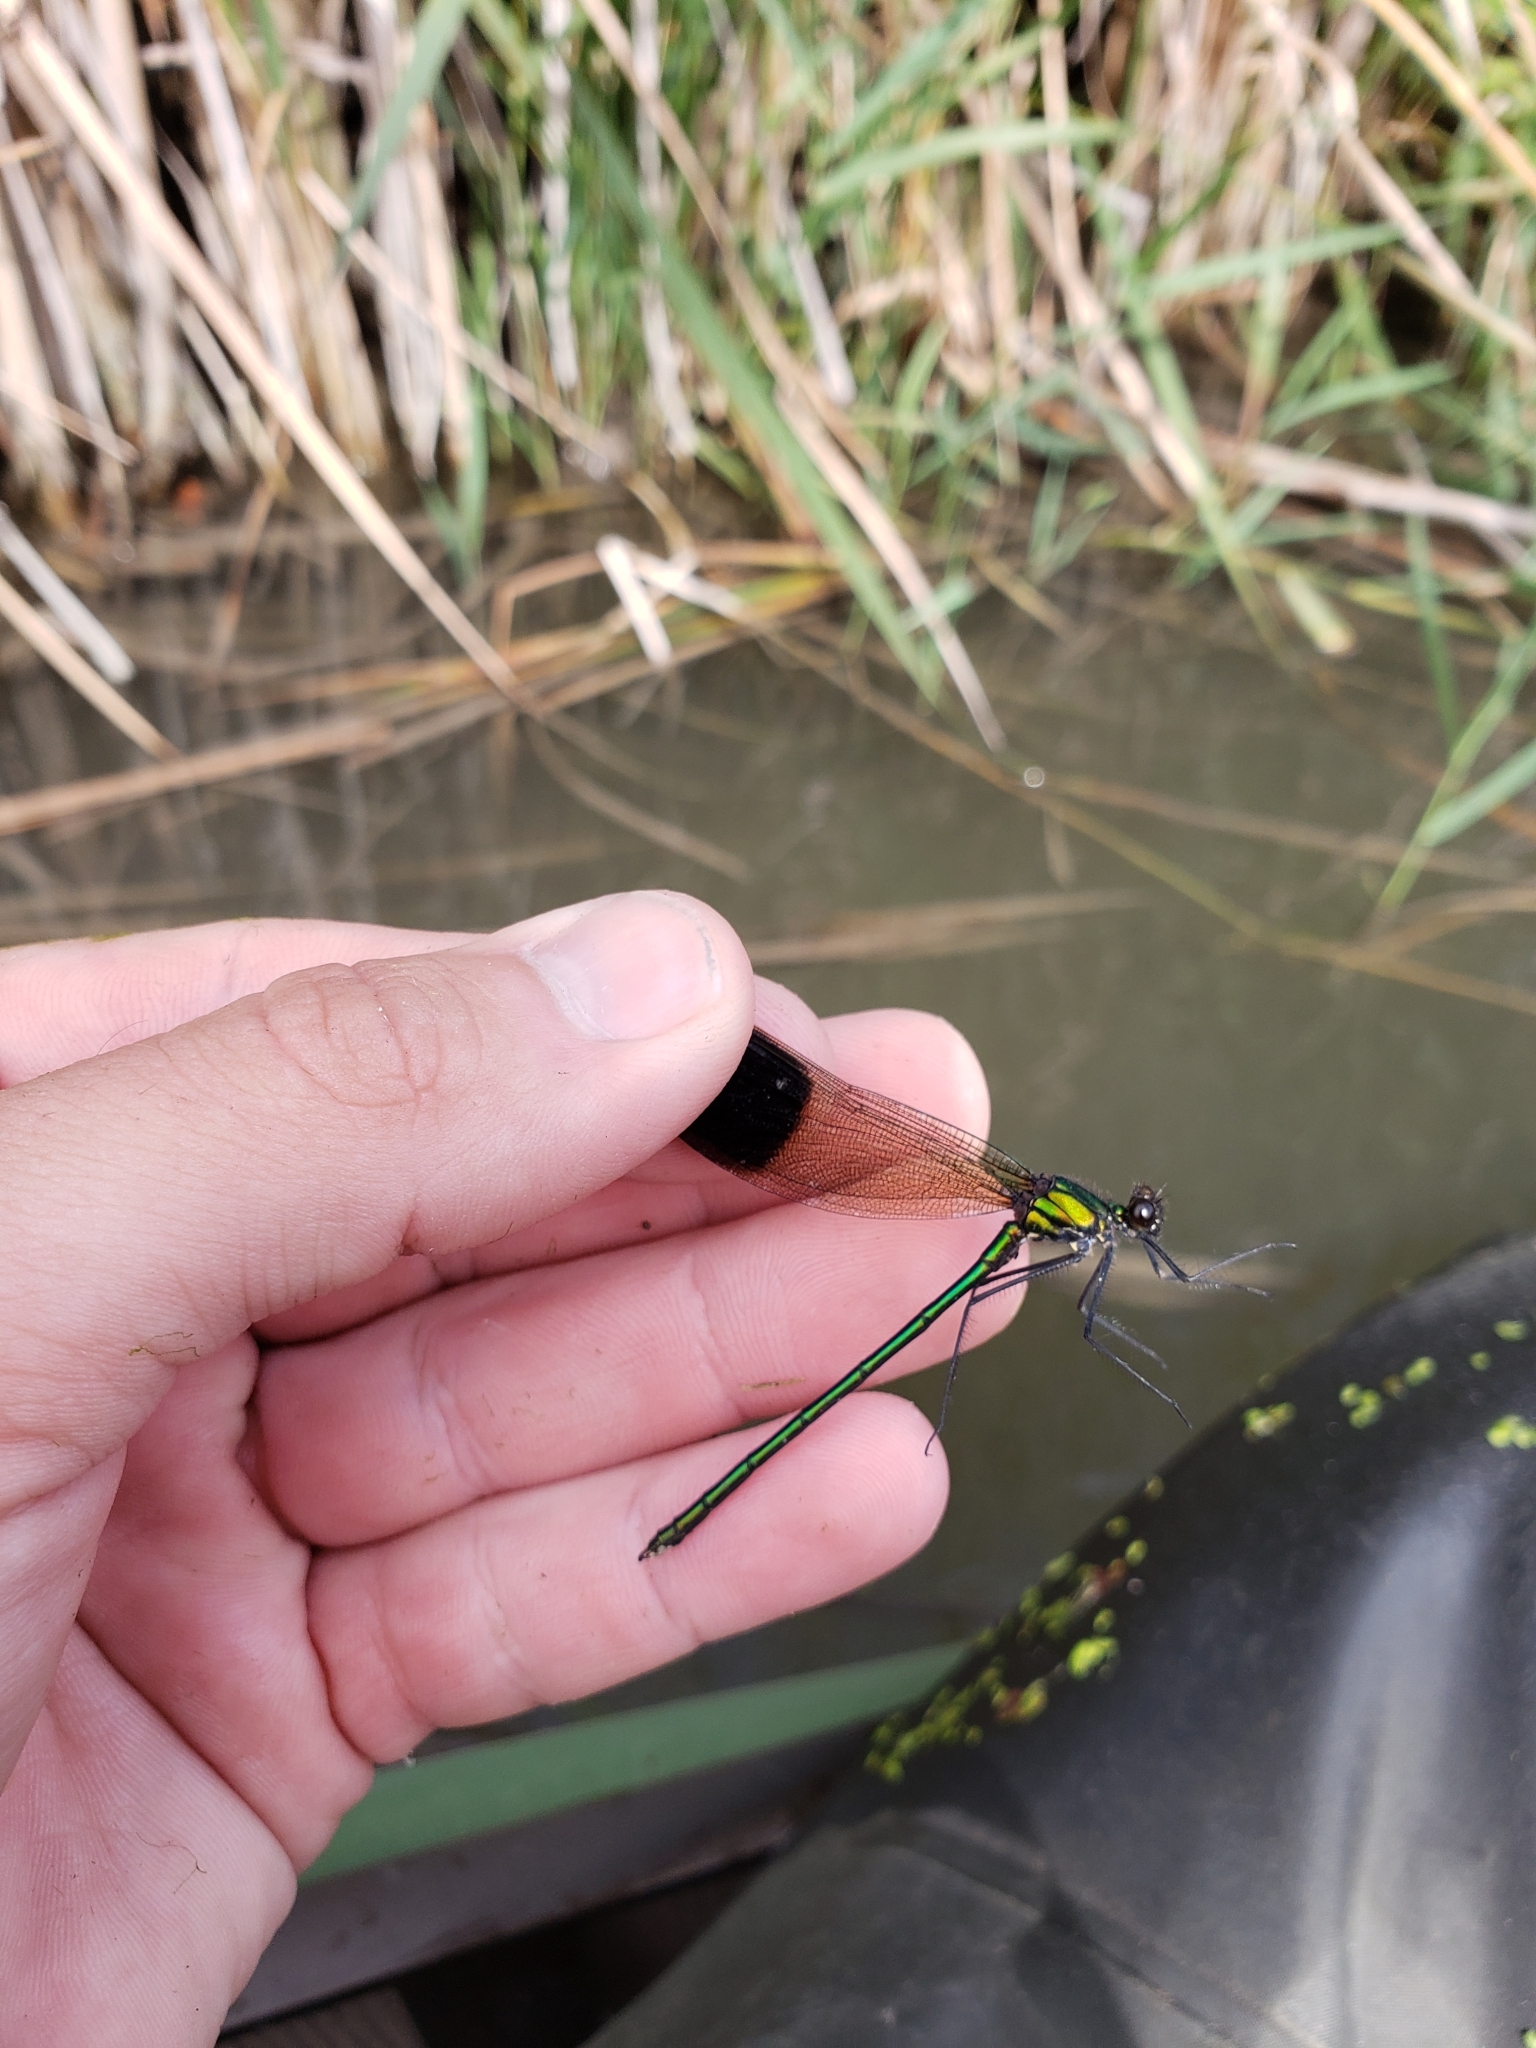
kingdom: Animalia
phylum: Arthropoda
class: Insecta
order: Odonata
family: Calopterygidae
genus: Calopteryx
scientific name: Calopteryx aequabilis
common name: River jewelwing
